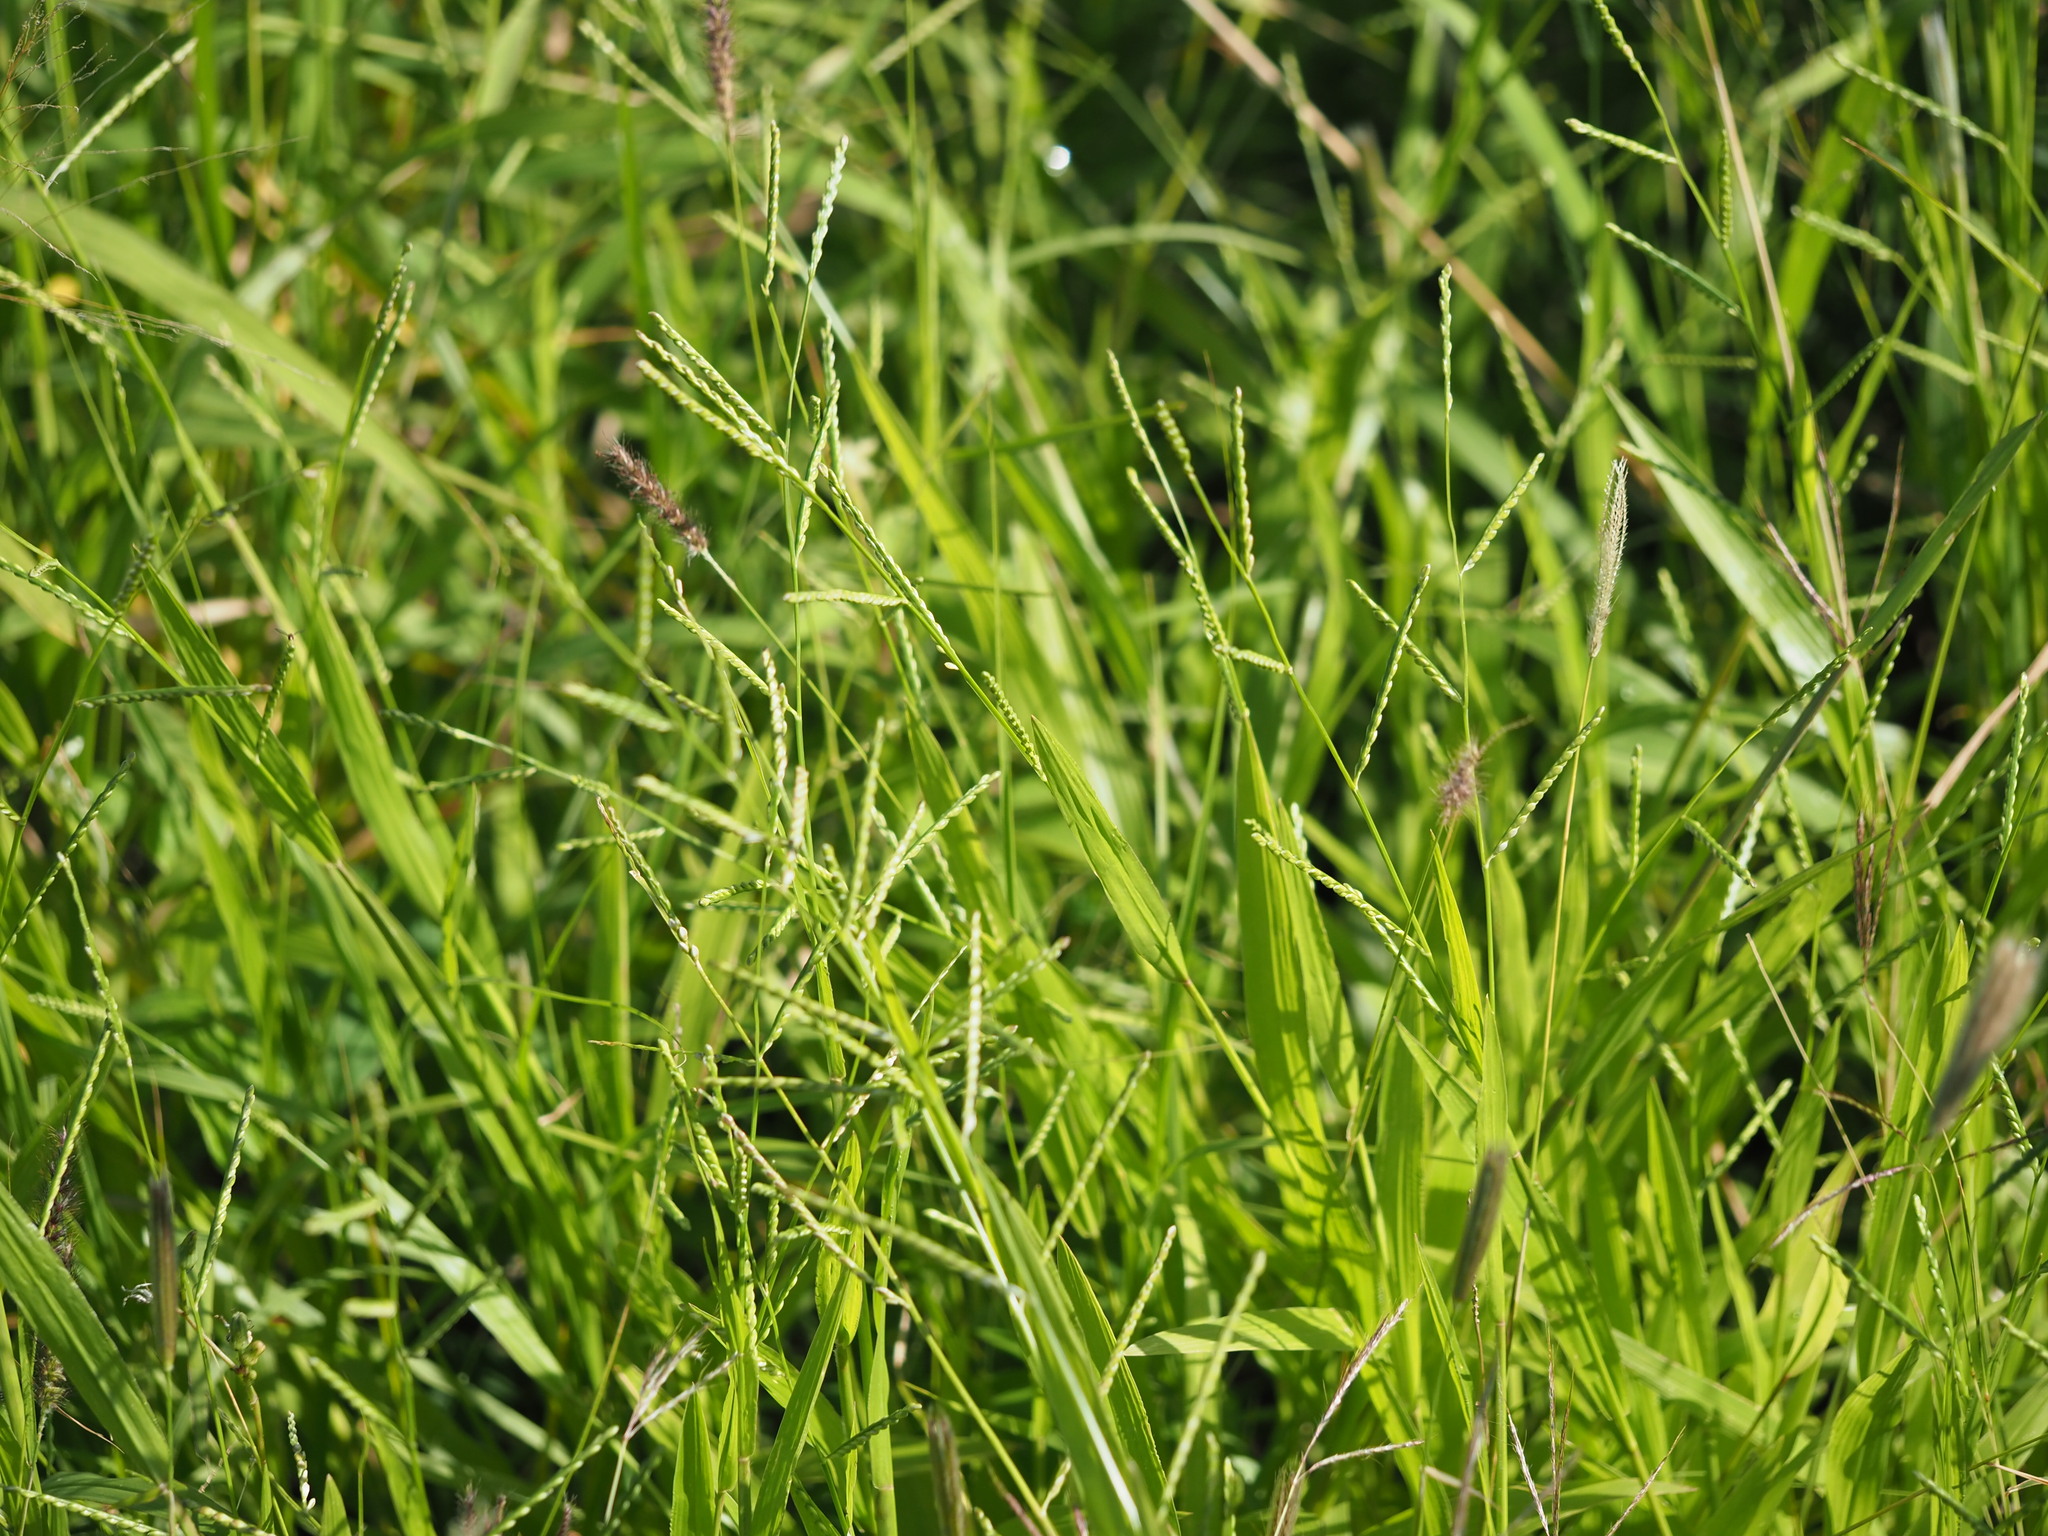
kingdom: Plantae
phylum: Tracheophyta
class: Liliopsida
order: Poales
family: Poaceae
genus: Urochloa
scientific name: Urochloa plantaginea
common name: Plantain signalgrass
